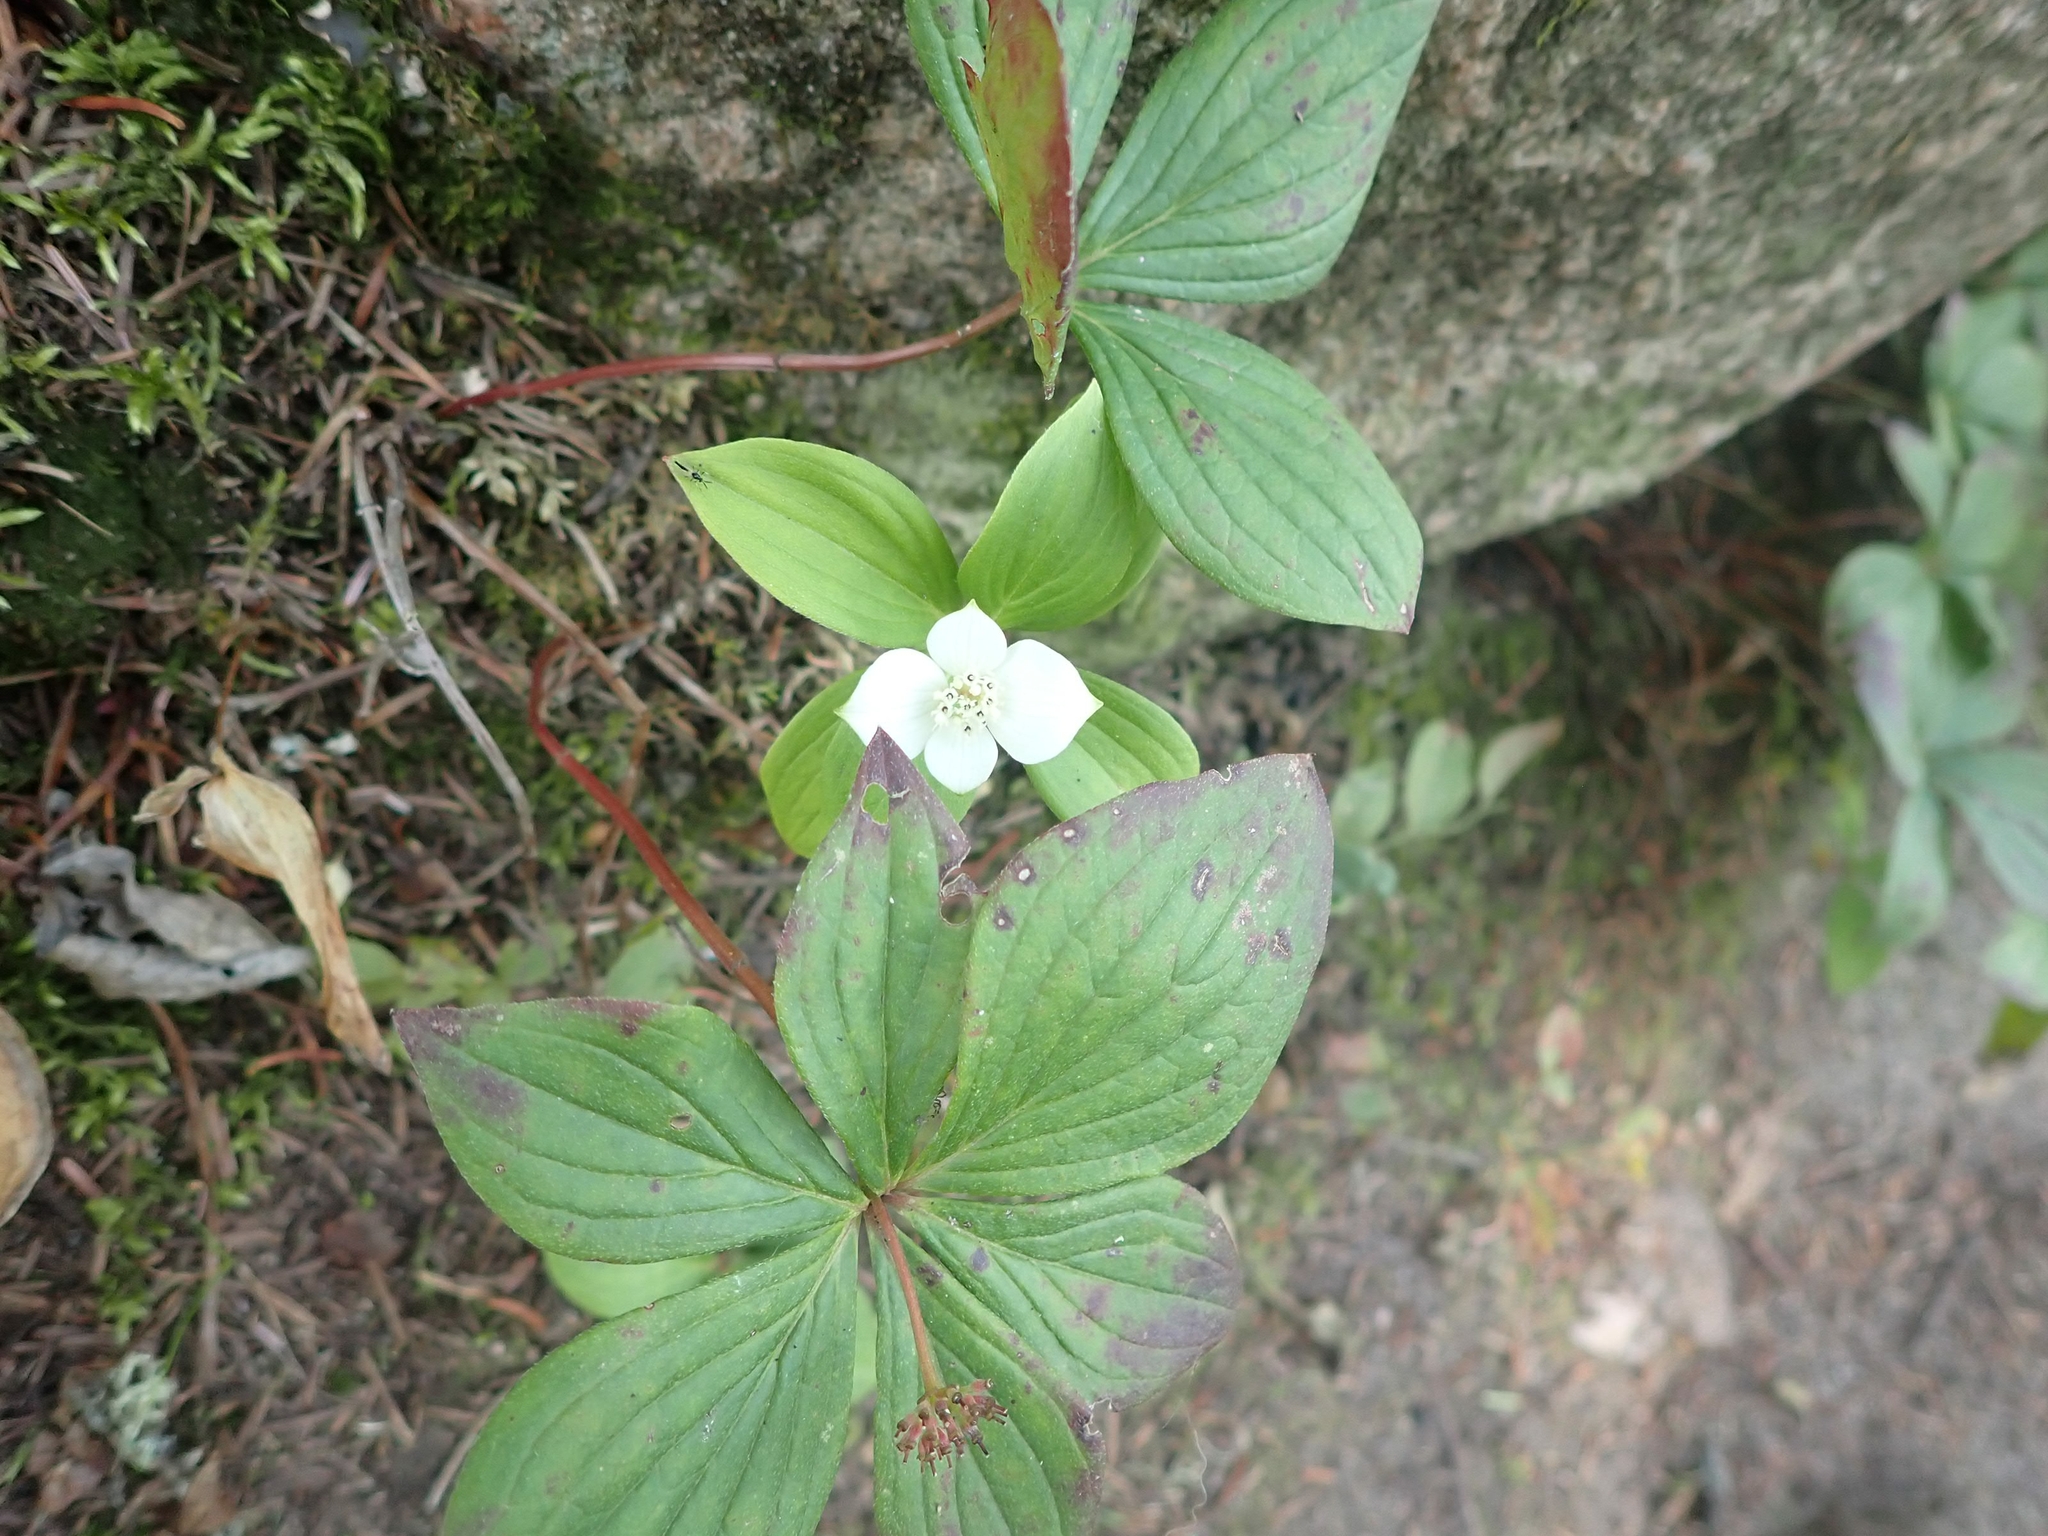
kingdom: Plantae
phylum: Tracheophyta
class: Magnoliopsida
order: Cornales
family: Cornaceae
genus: Cornus
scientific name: Cornus canadensis
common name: Creeping dogwood
